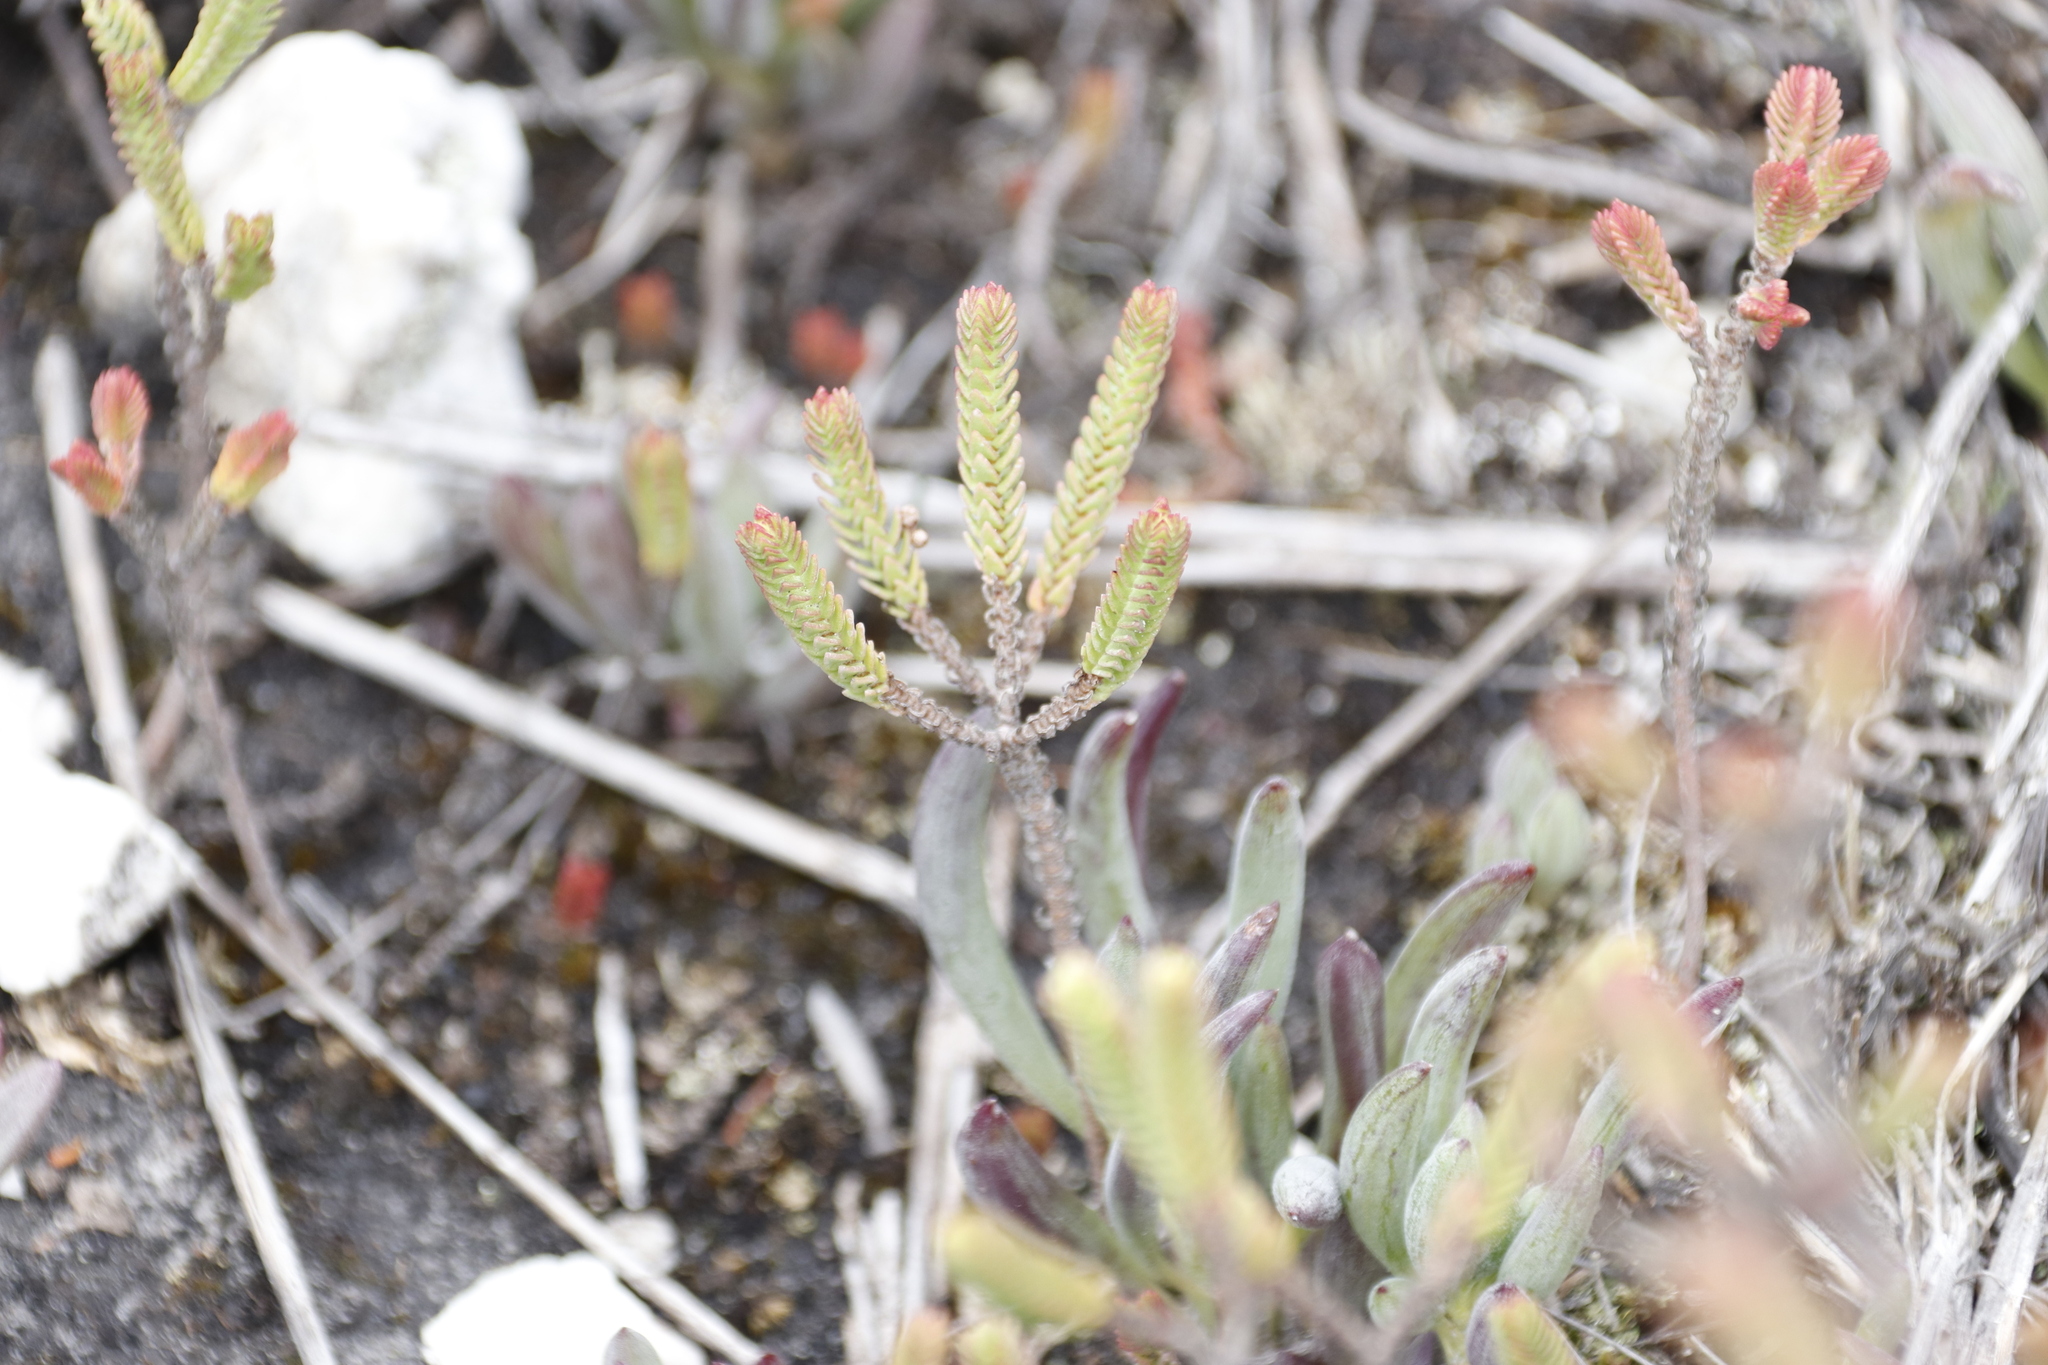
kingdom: Plantae
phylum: Tracheophyta
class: Magnoliopsida
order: Saxifragales
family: Crassulaceae
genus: Crassula
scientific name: Crassula ericoides
